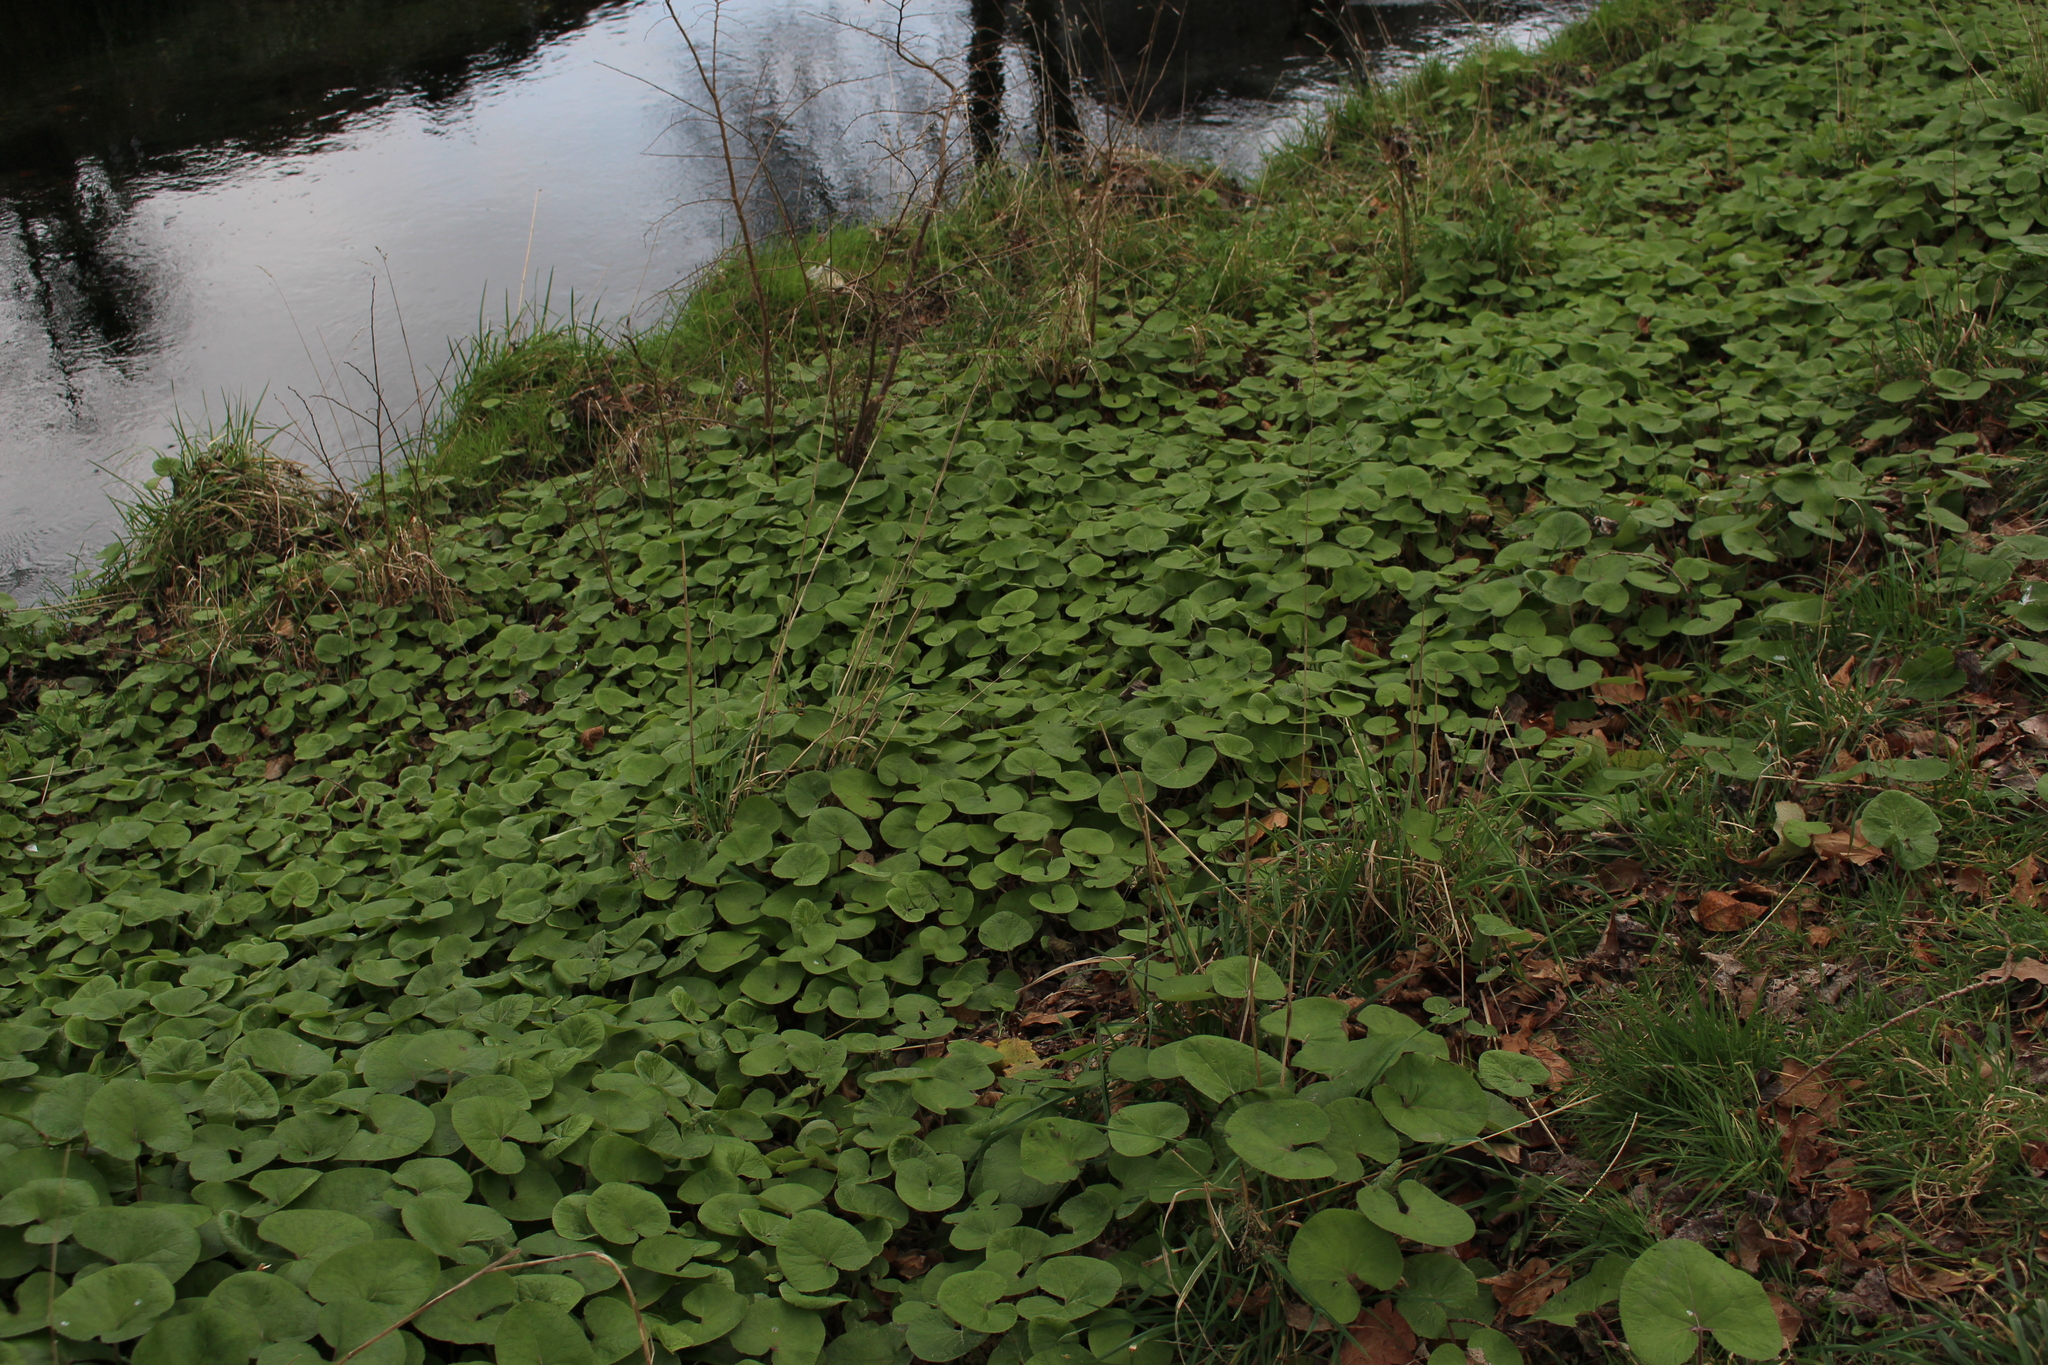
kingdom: Plantae
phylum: Tracheophyta
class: Magnoliopsida
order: Asterales
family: Asteraceae
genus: Petasites
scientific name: Petasites pyrenaicus
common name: Winter heliotrope
